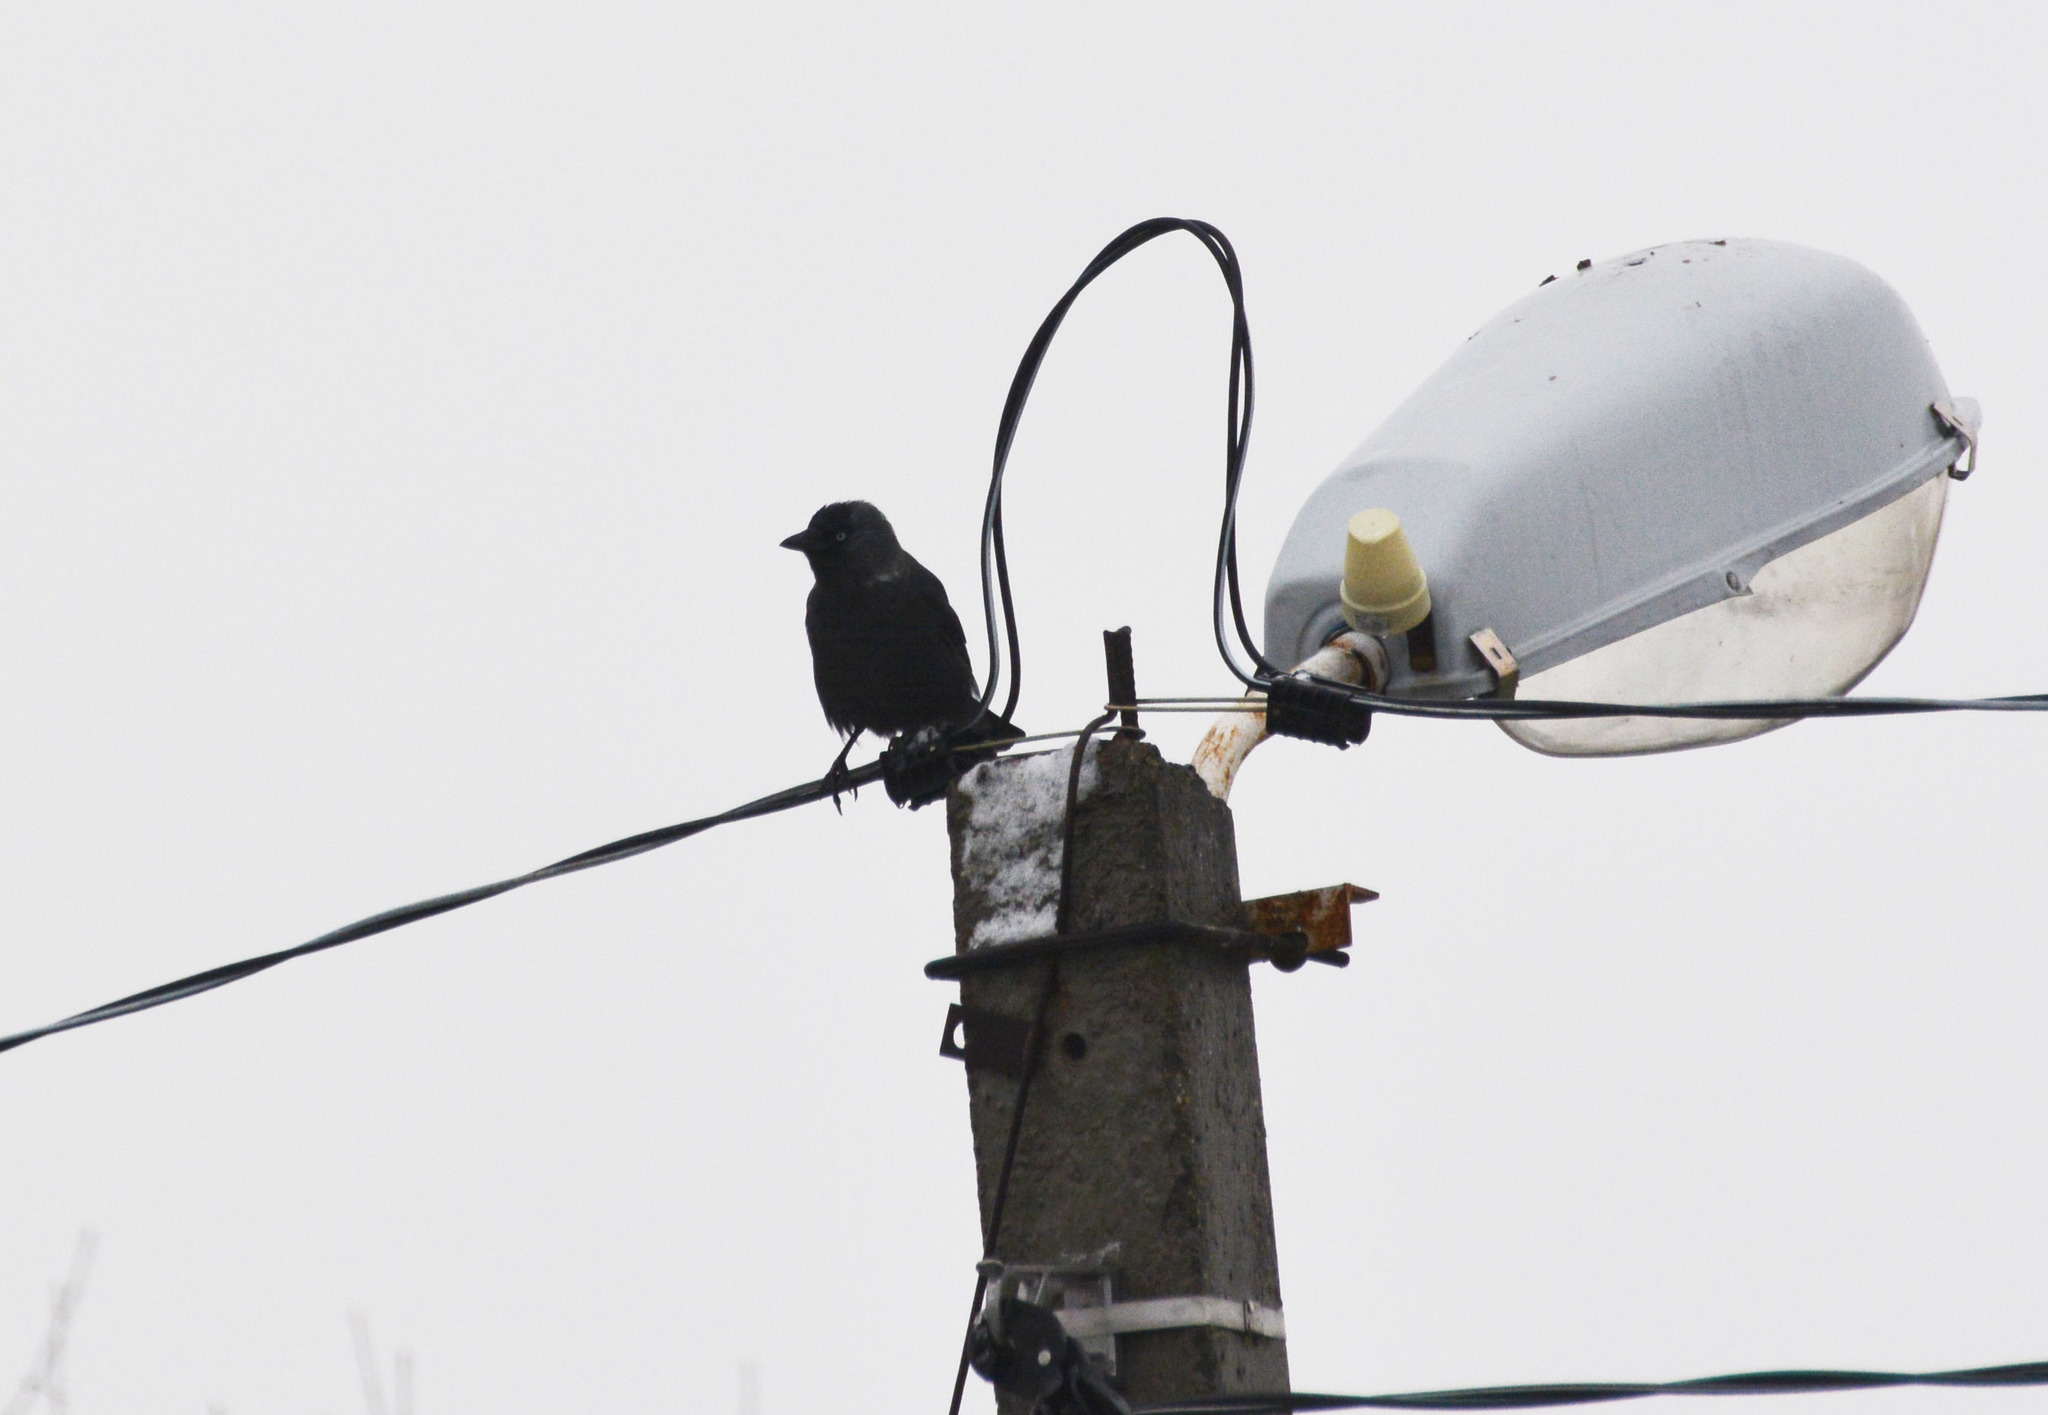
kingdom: Animalia
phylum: Chordata
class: Aves
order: Passeriformes
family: Corvidae
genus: Coloeus
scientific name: Coloeus monedula
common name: Western jackdaw
